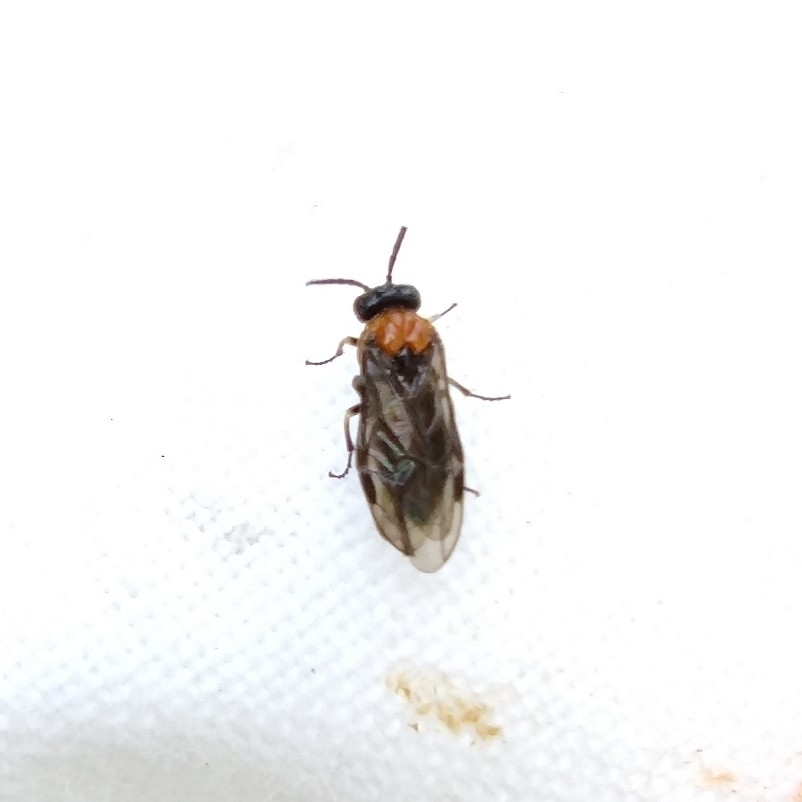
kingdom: Animalia
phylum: Arthropoda
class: Insecta
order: Hymenoptera
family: Tenthredinidae
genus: Eutomostethus
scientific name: Eutomostethus ephippium
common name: Tenthredid wasp
